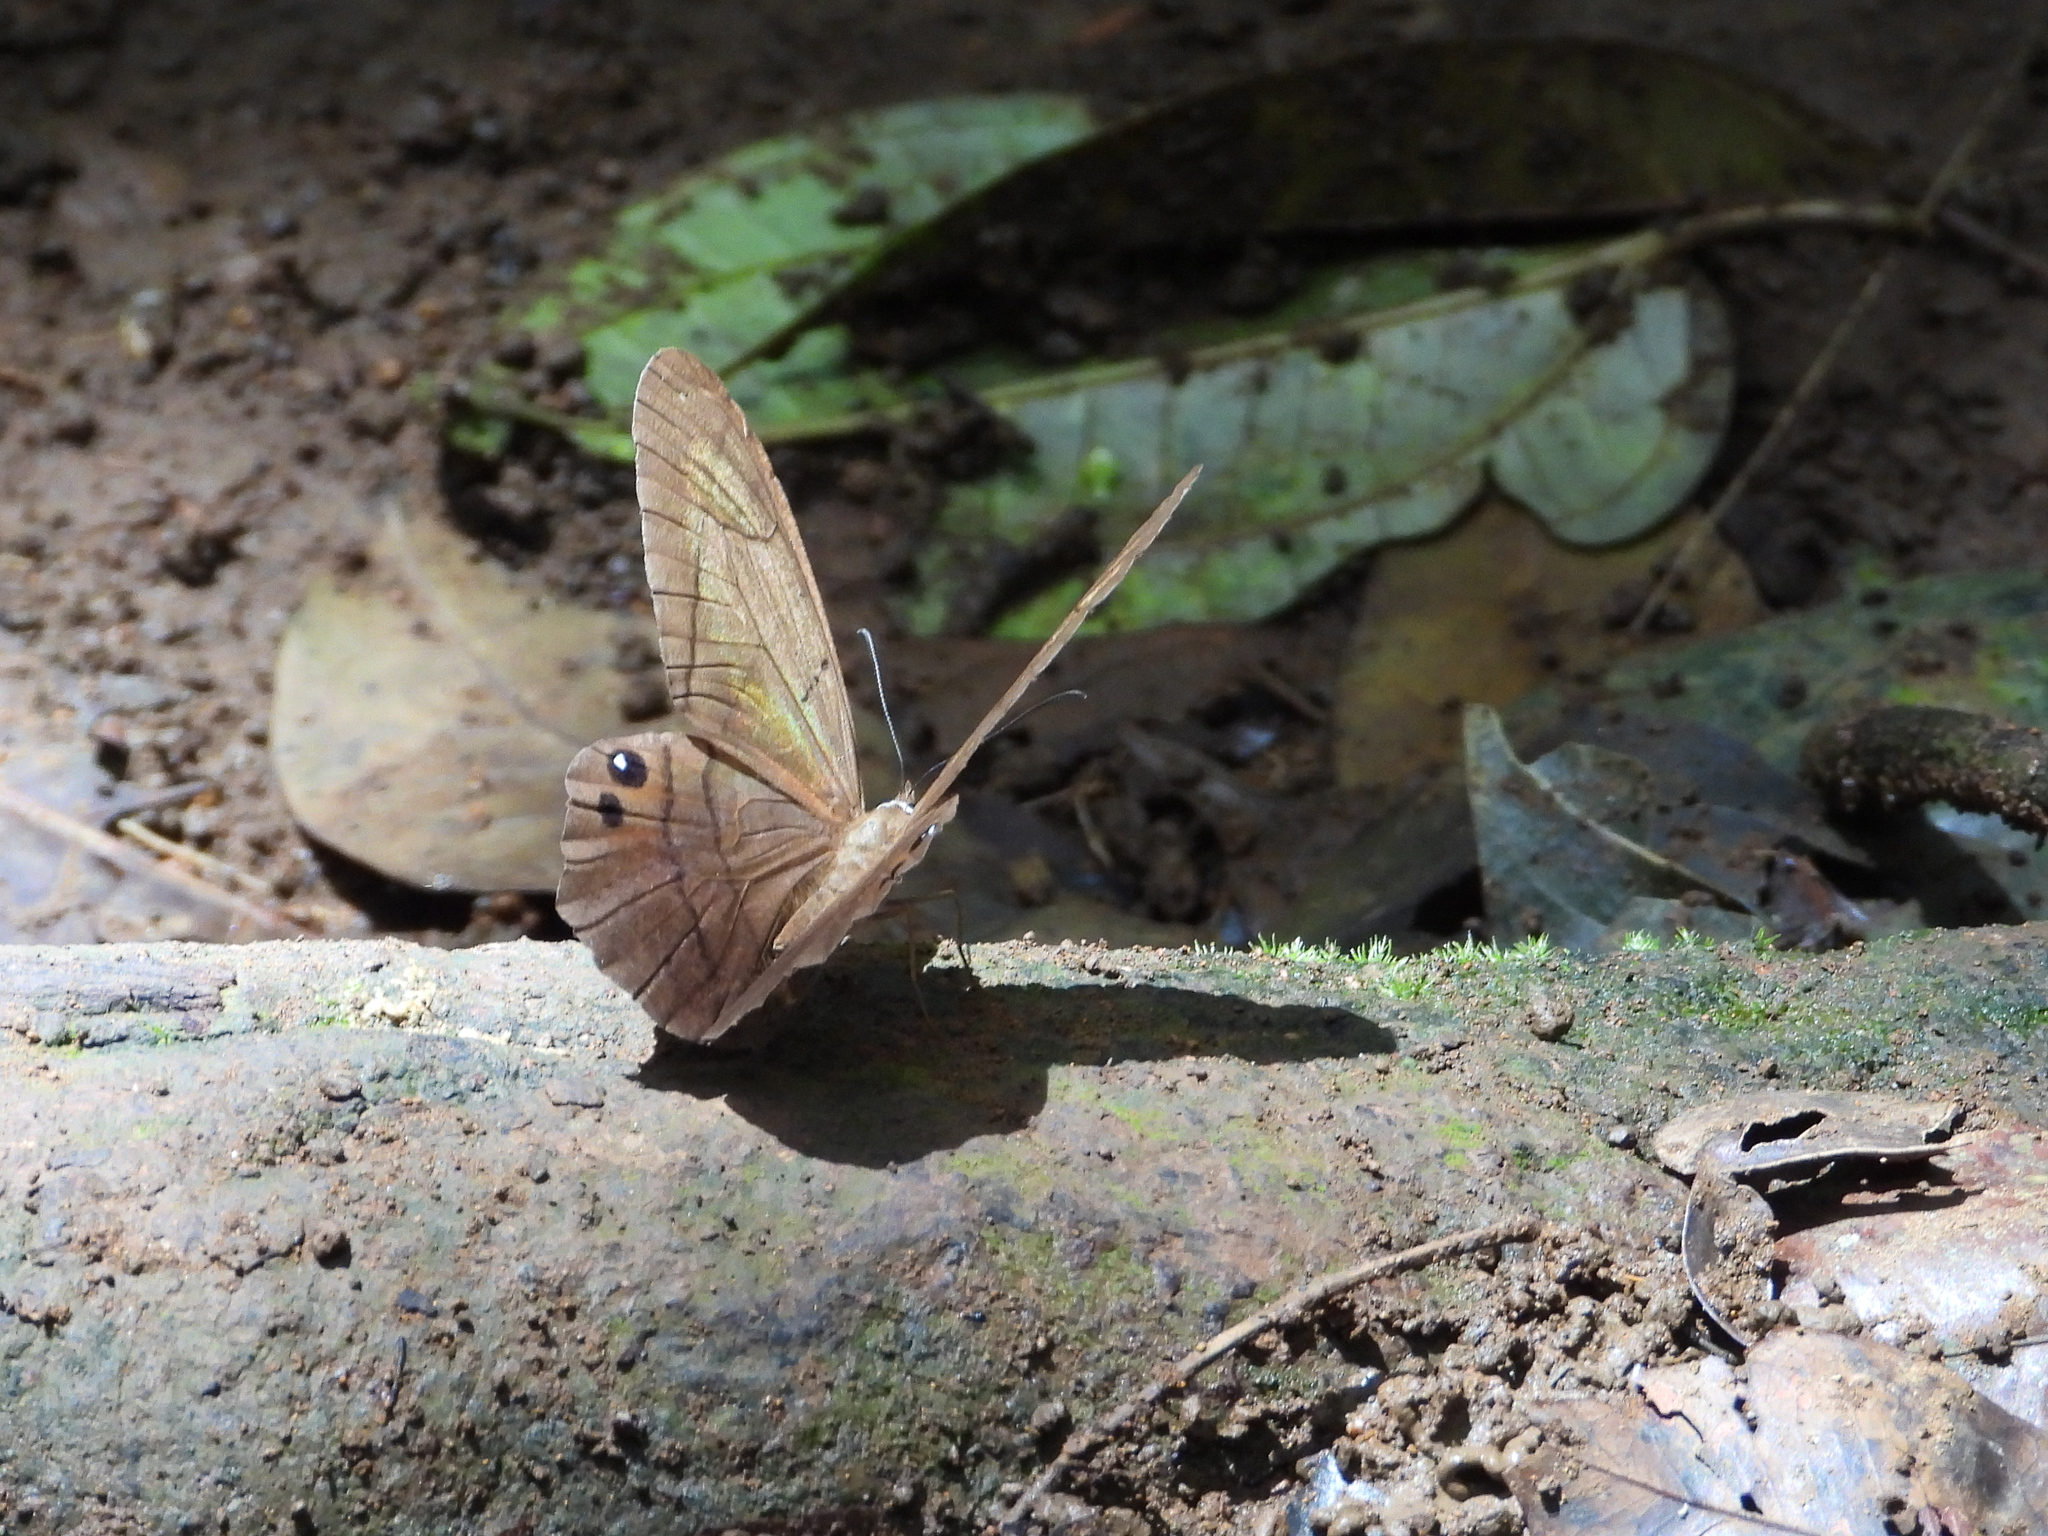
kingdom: Animalia
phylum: Arthropoda
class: Insecta
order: Lepidoptera
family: Nymphalidae
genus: Pierella
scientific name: Pierella luna
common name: Moon satyr
